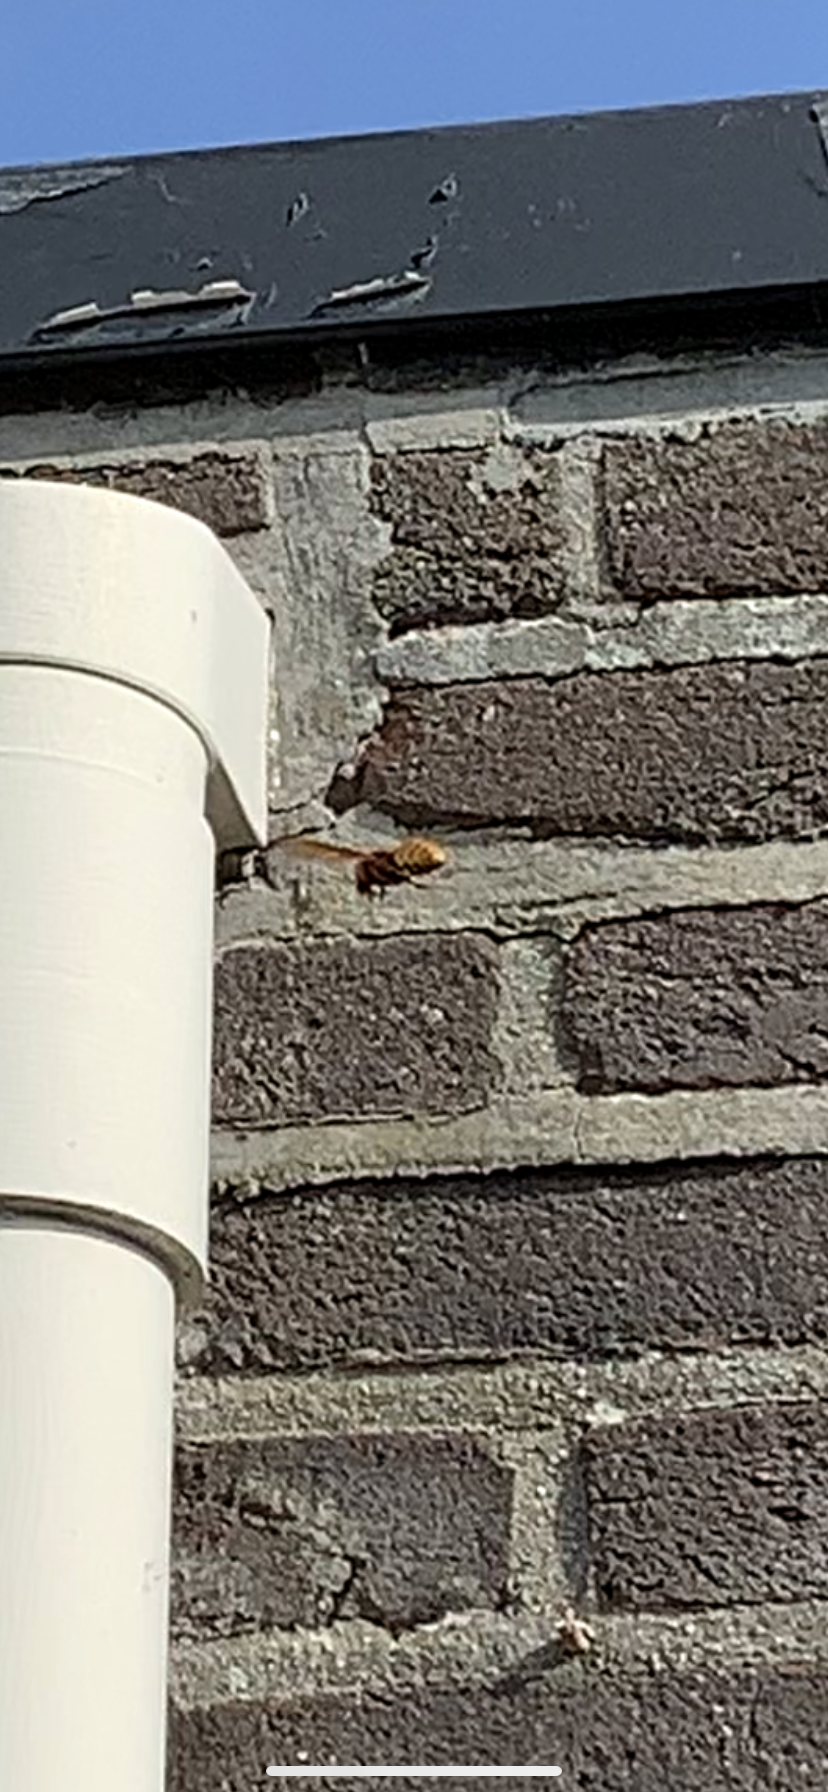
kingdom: Animalia
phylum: Arthropoda
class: Insecta
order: Hymenoptera
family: Vespidae
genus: Vespa
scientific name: Vespa crabro
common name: Hornet
